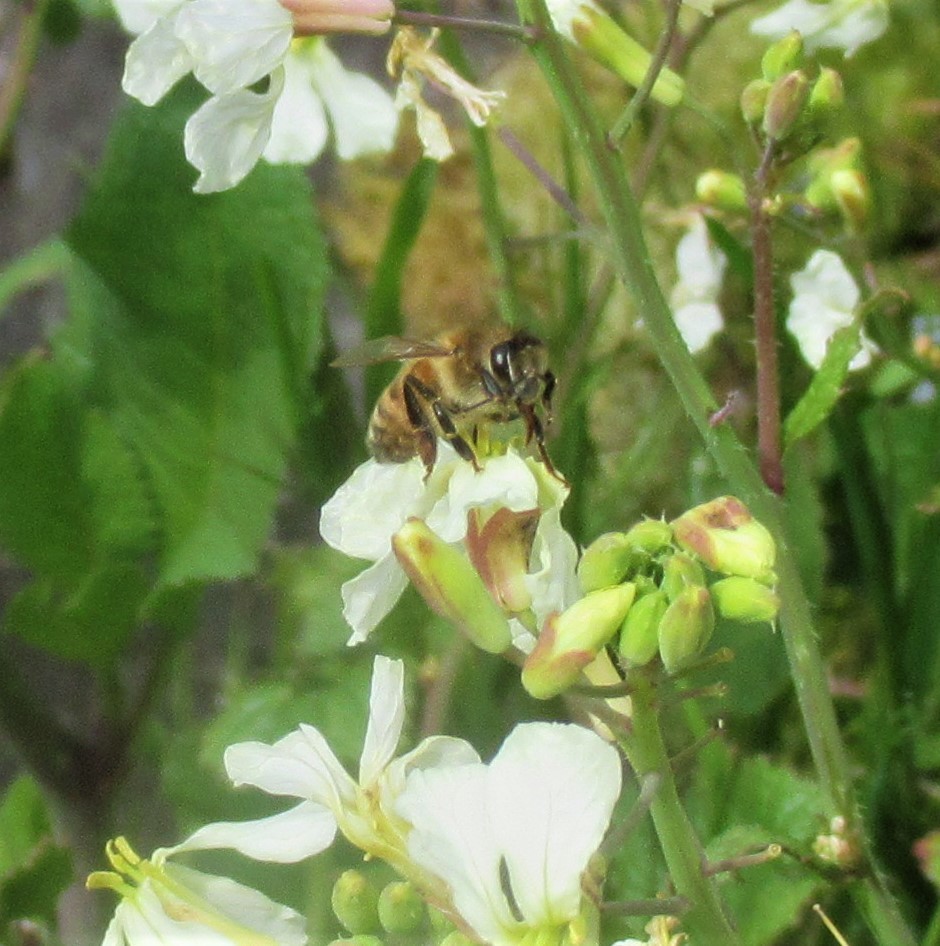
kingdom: Animalia
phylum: Arthropoda
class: Insecta
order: Hymenoptera
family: Apidae
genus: Apis
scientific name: Apis mellifera
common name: Honey bee
